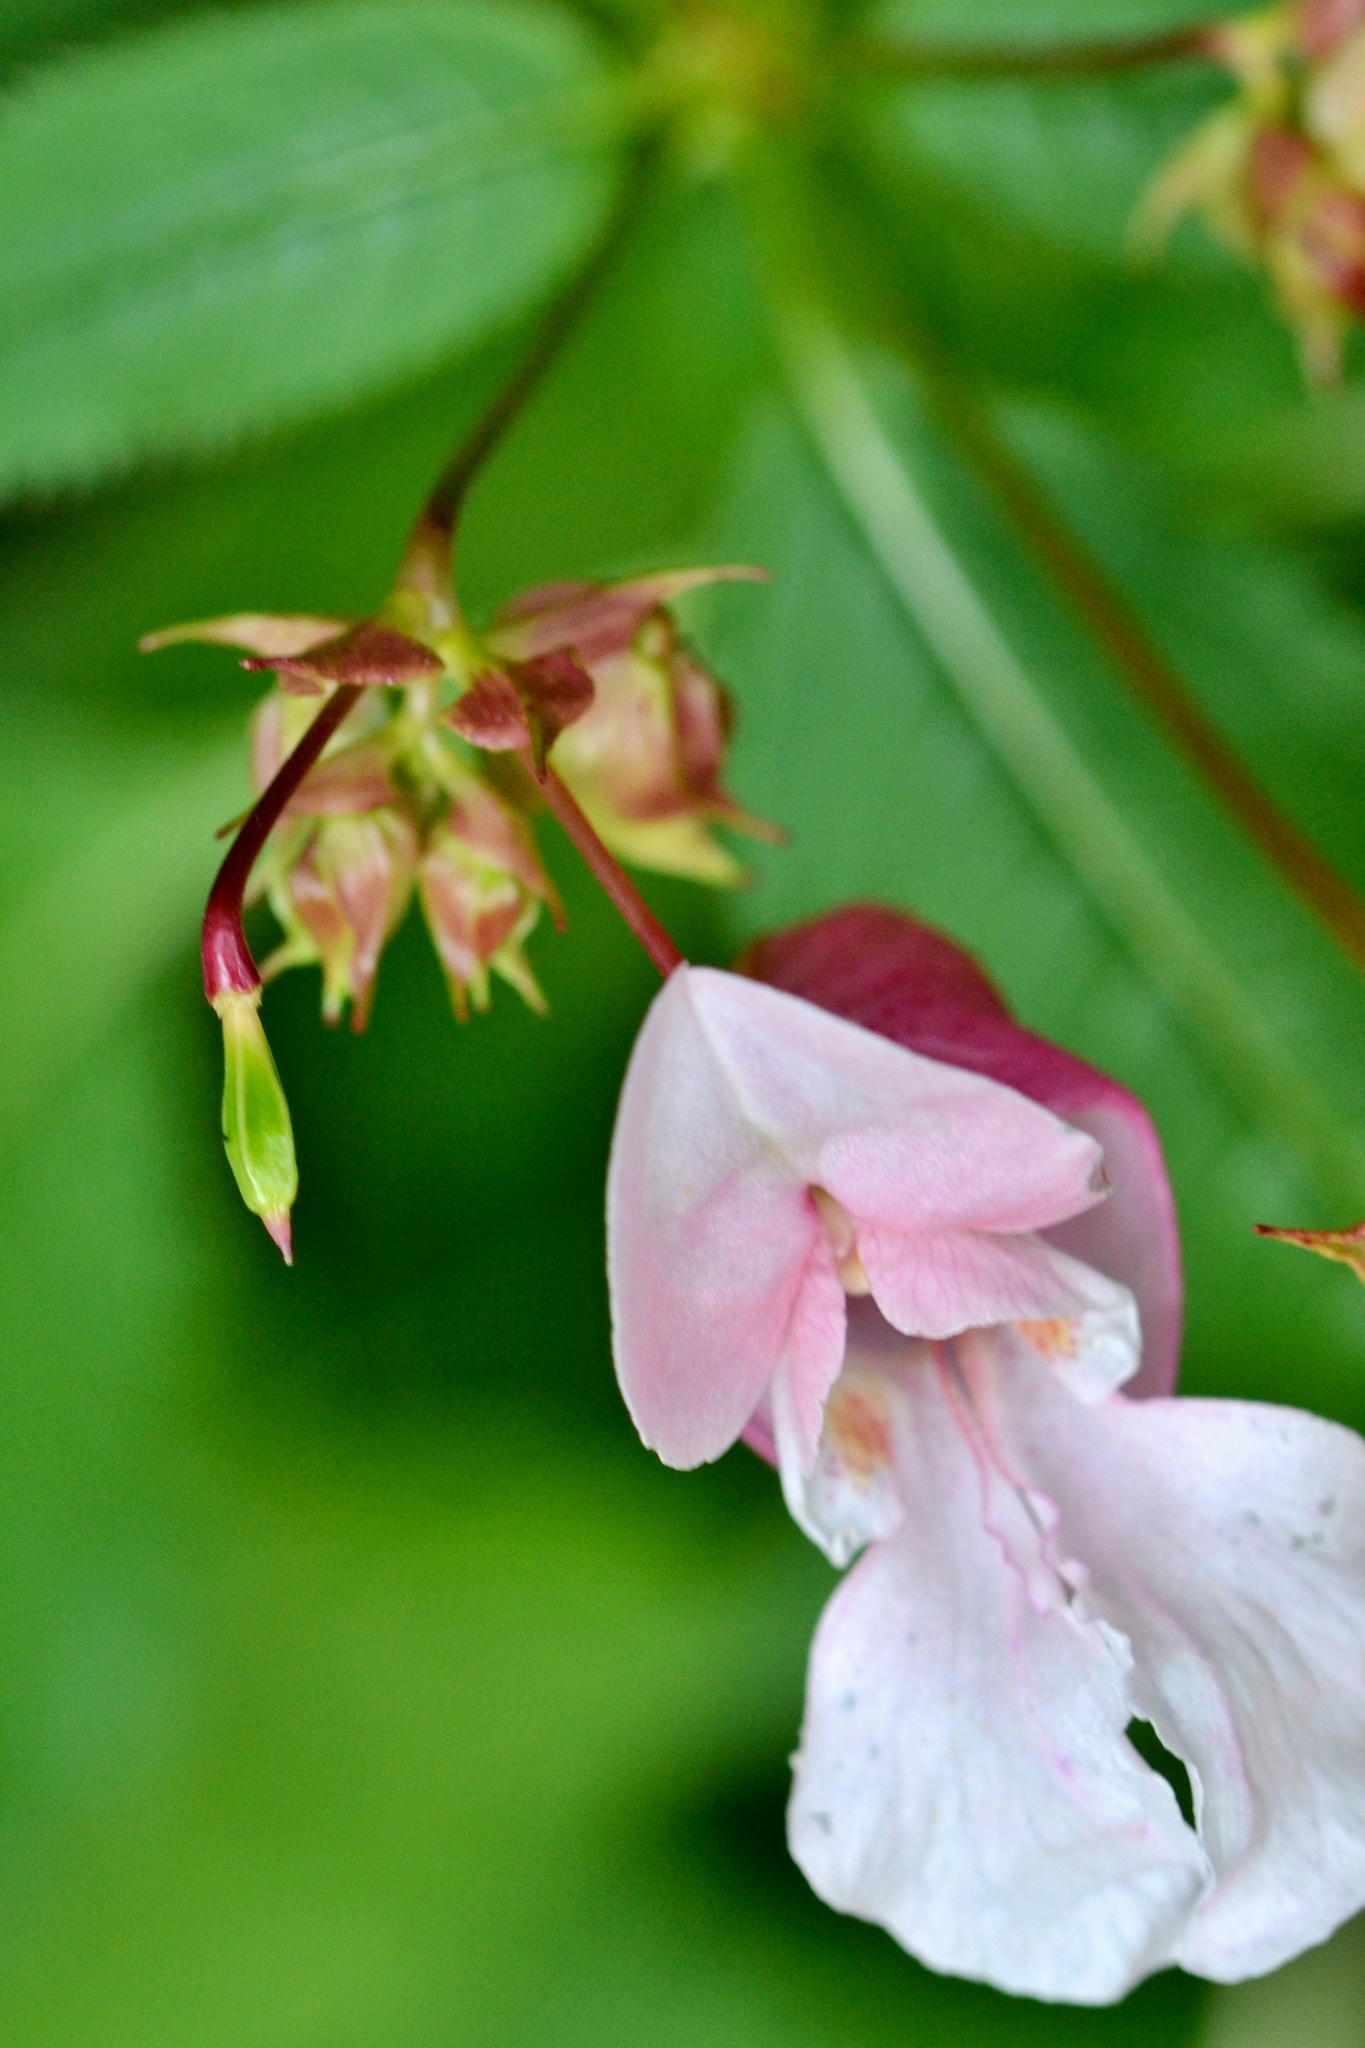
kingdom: Plantae
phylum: Tracheophyta
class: Magnoliopsida
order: Ericales
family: Balsaminaceae
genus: Impatiens
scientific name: Impatiens glandulifera
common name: Himalayan balsam
